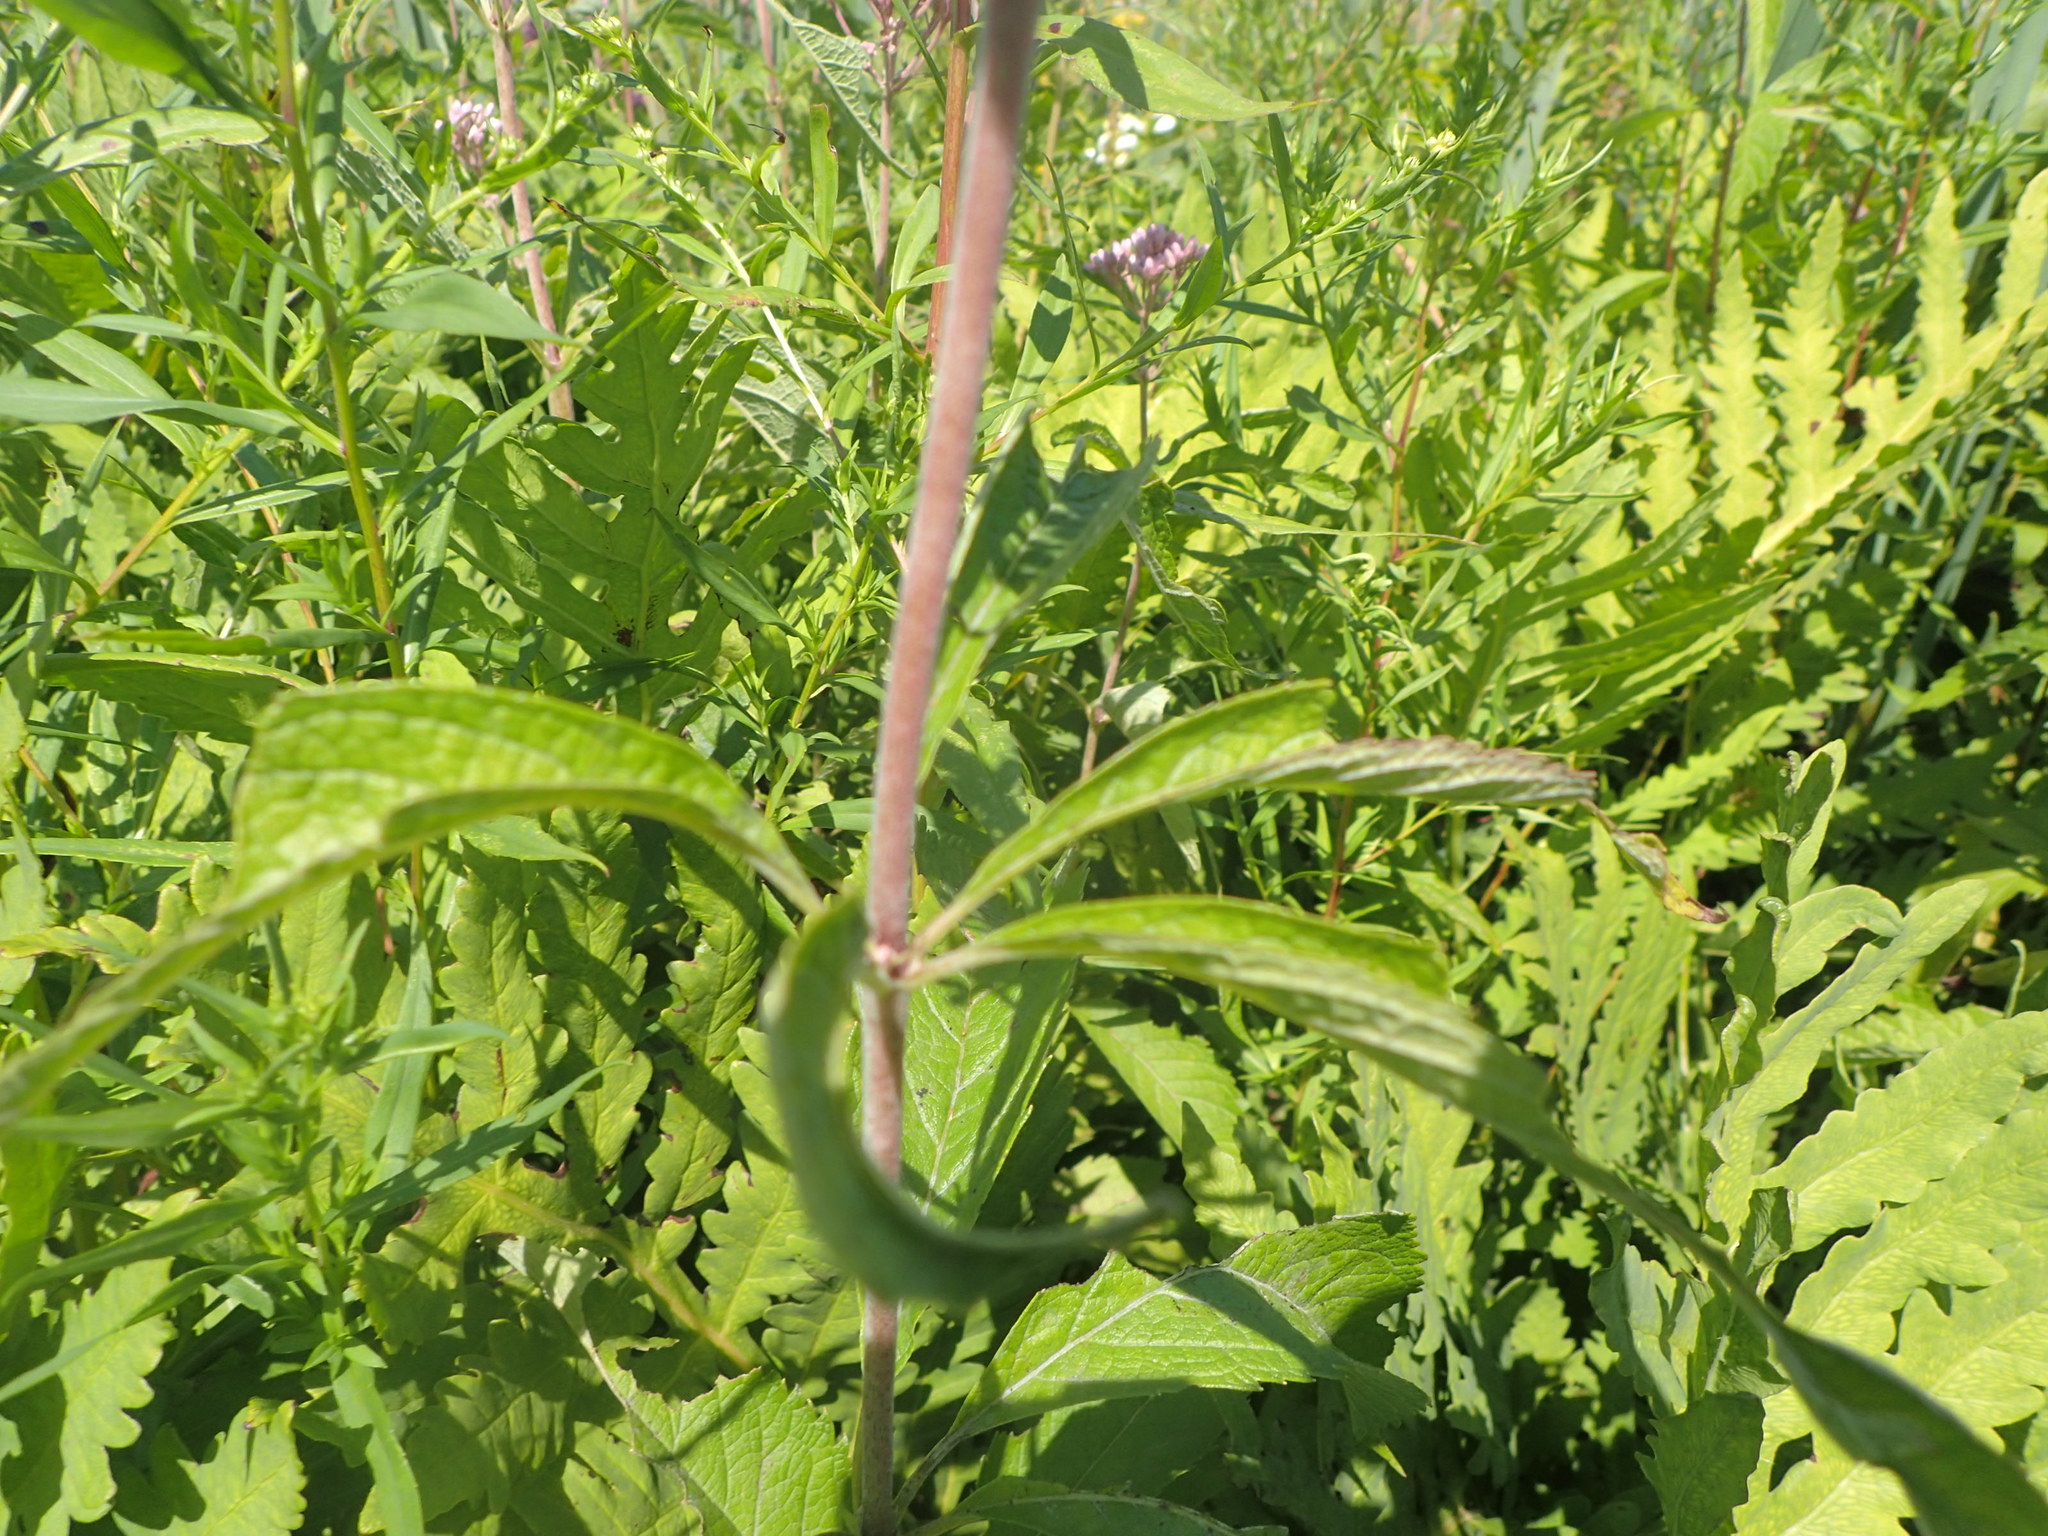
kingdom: Plantae
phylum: Tracheophyta
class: Magnoliopsida
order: Asterales
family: Asteraceae
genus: Eutrochium
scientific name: Eutrochium maculatum
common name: Spotted joe pye weed
